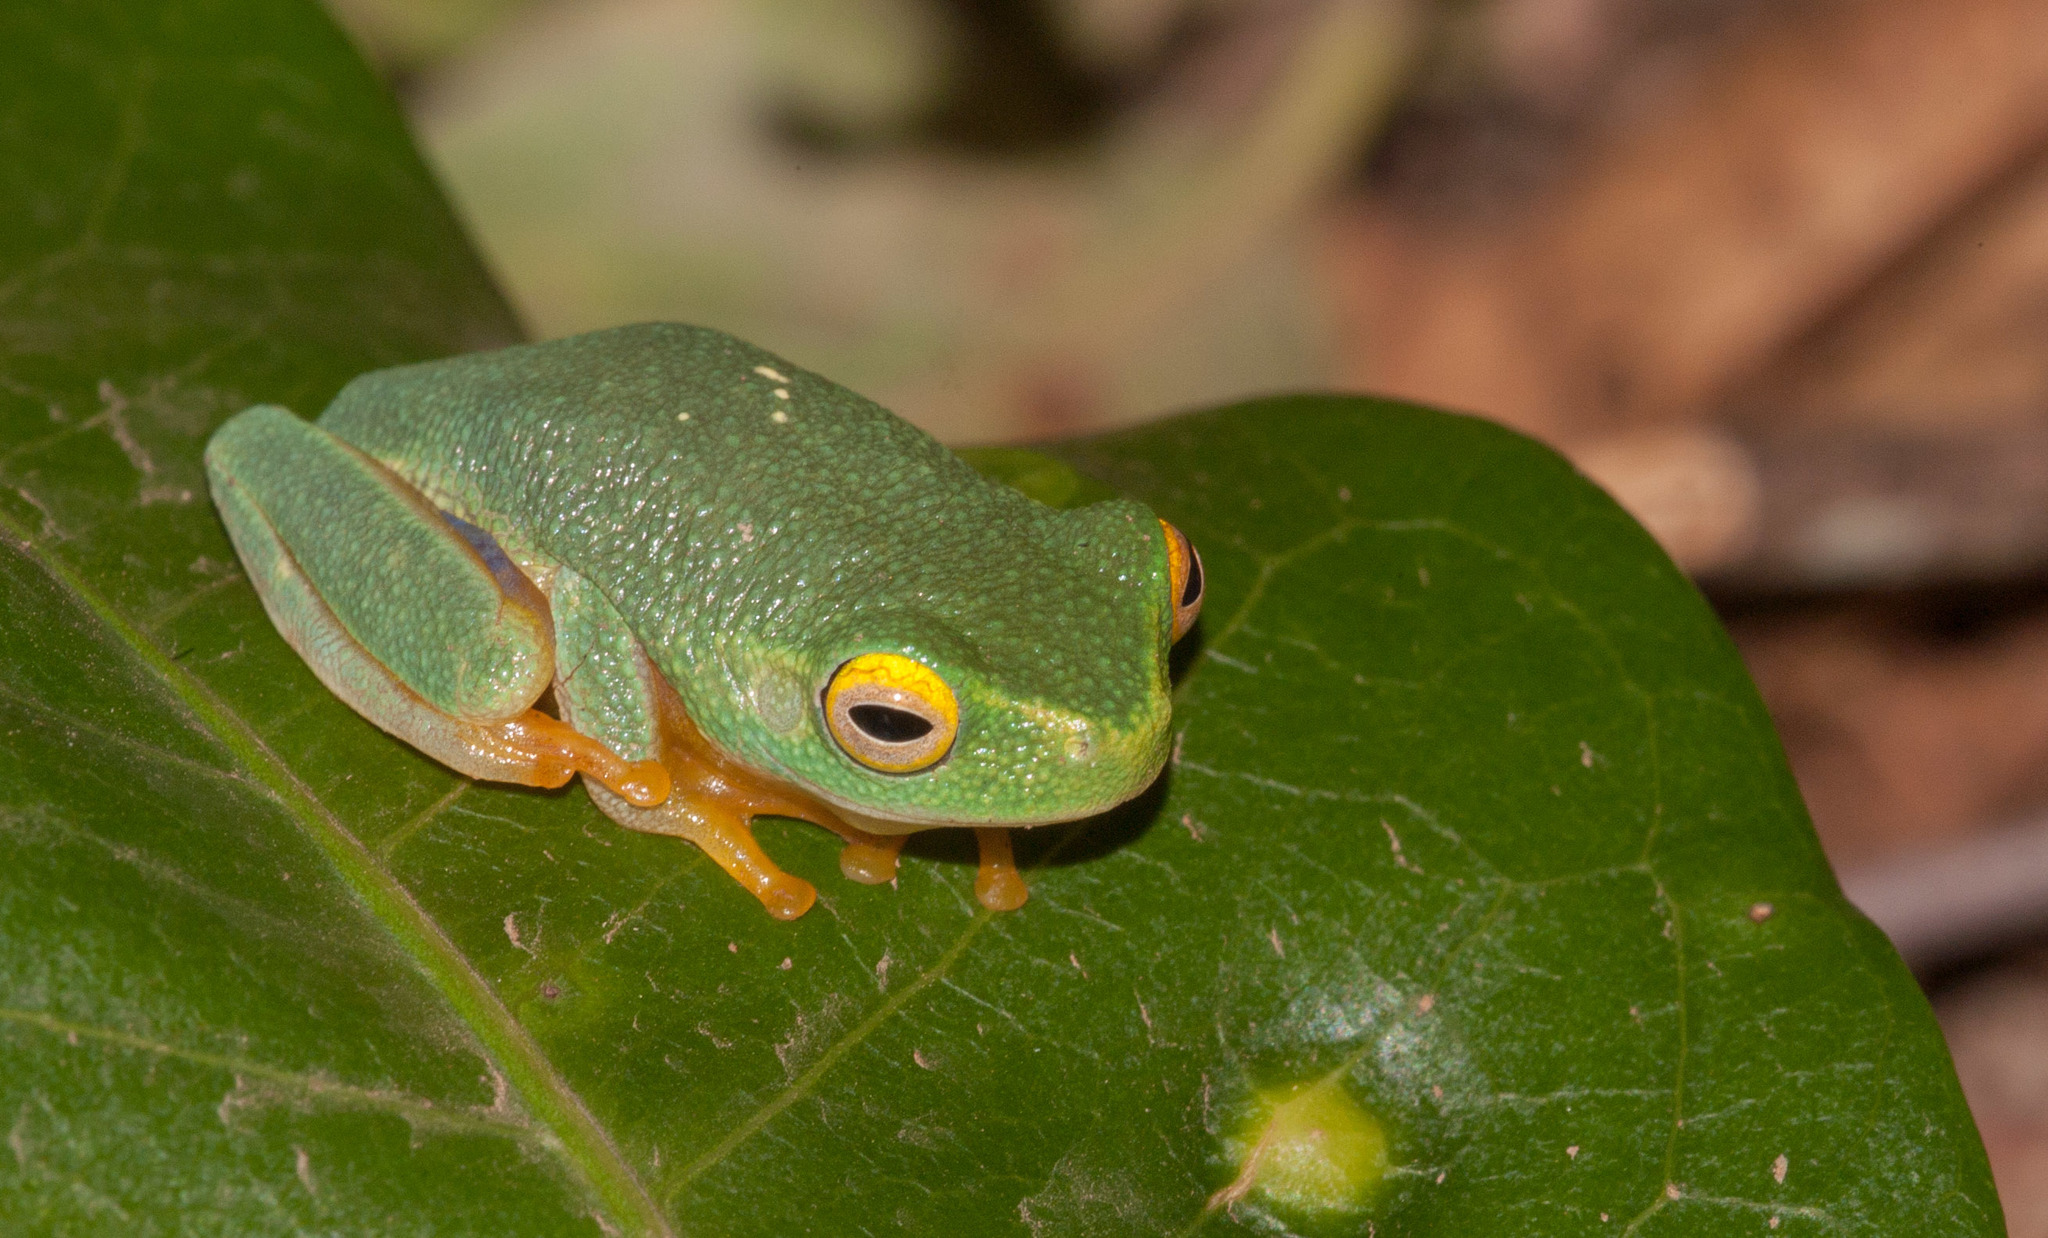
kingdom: Animalia
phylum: Chordata
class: Amphibia
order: Anura
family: Pelodryadidae
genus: Ranoidea
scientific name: Ranoidea bella
